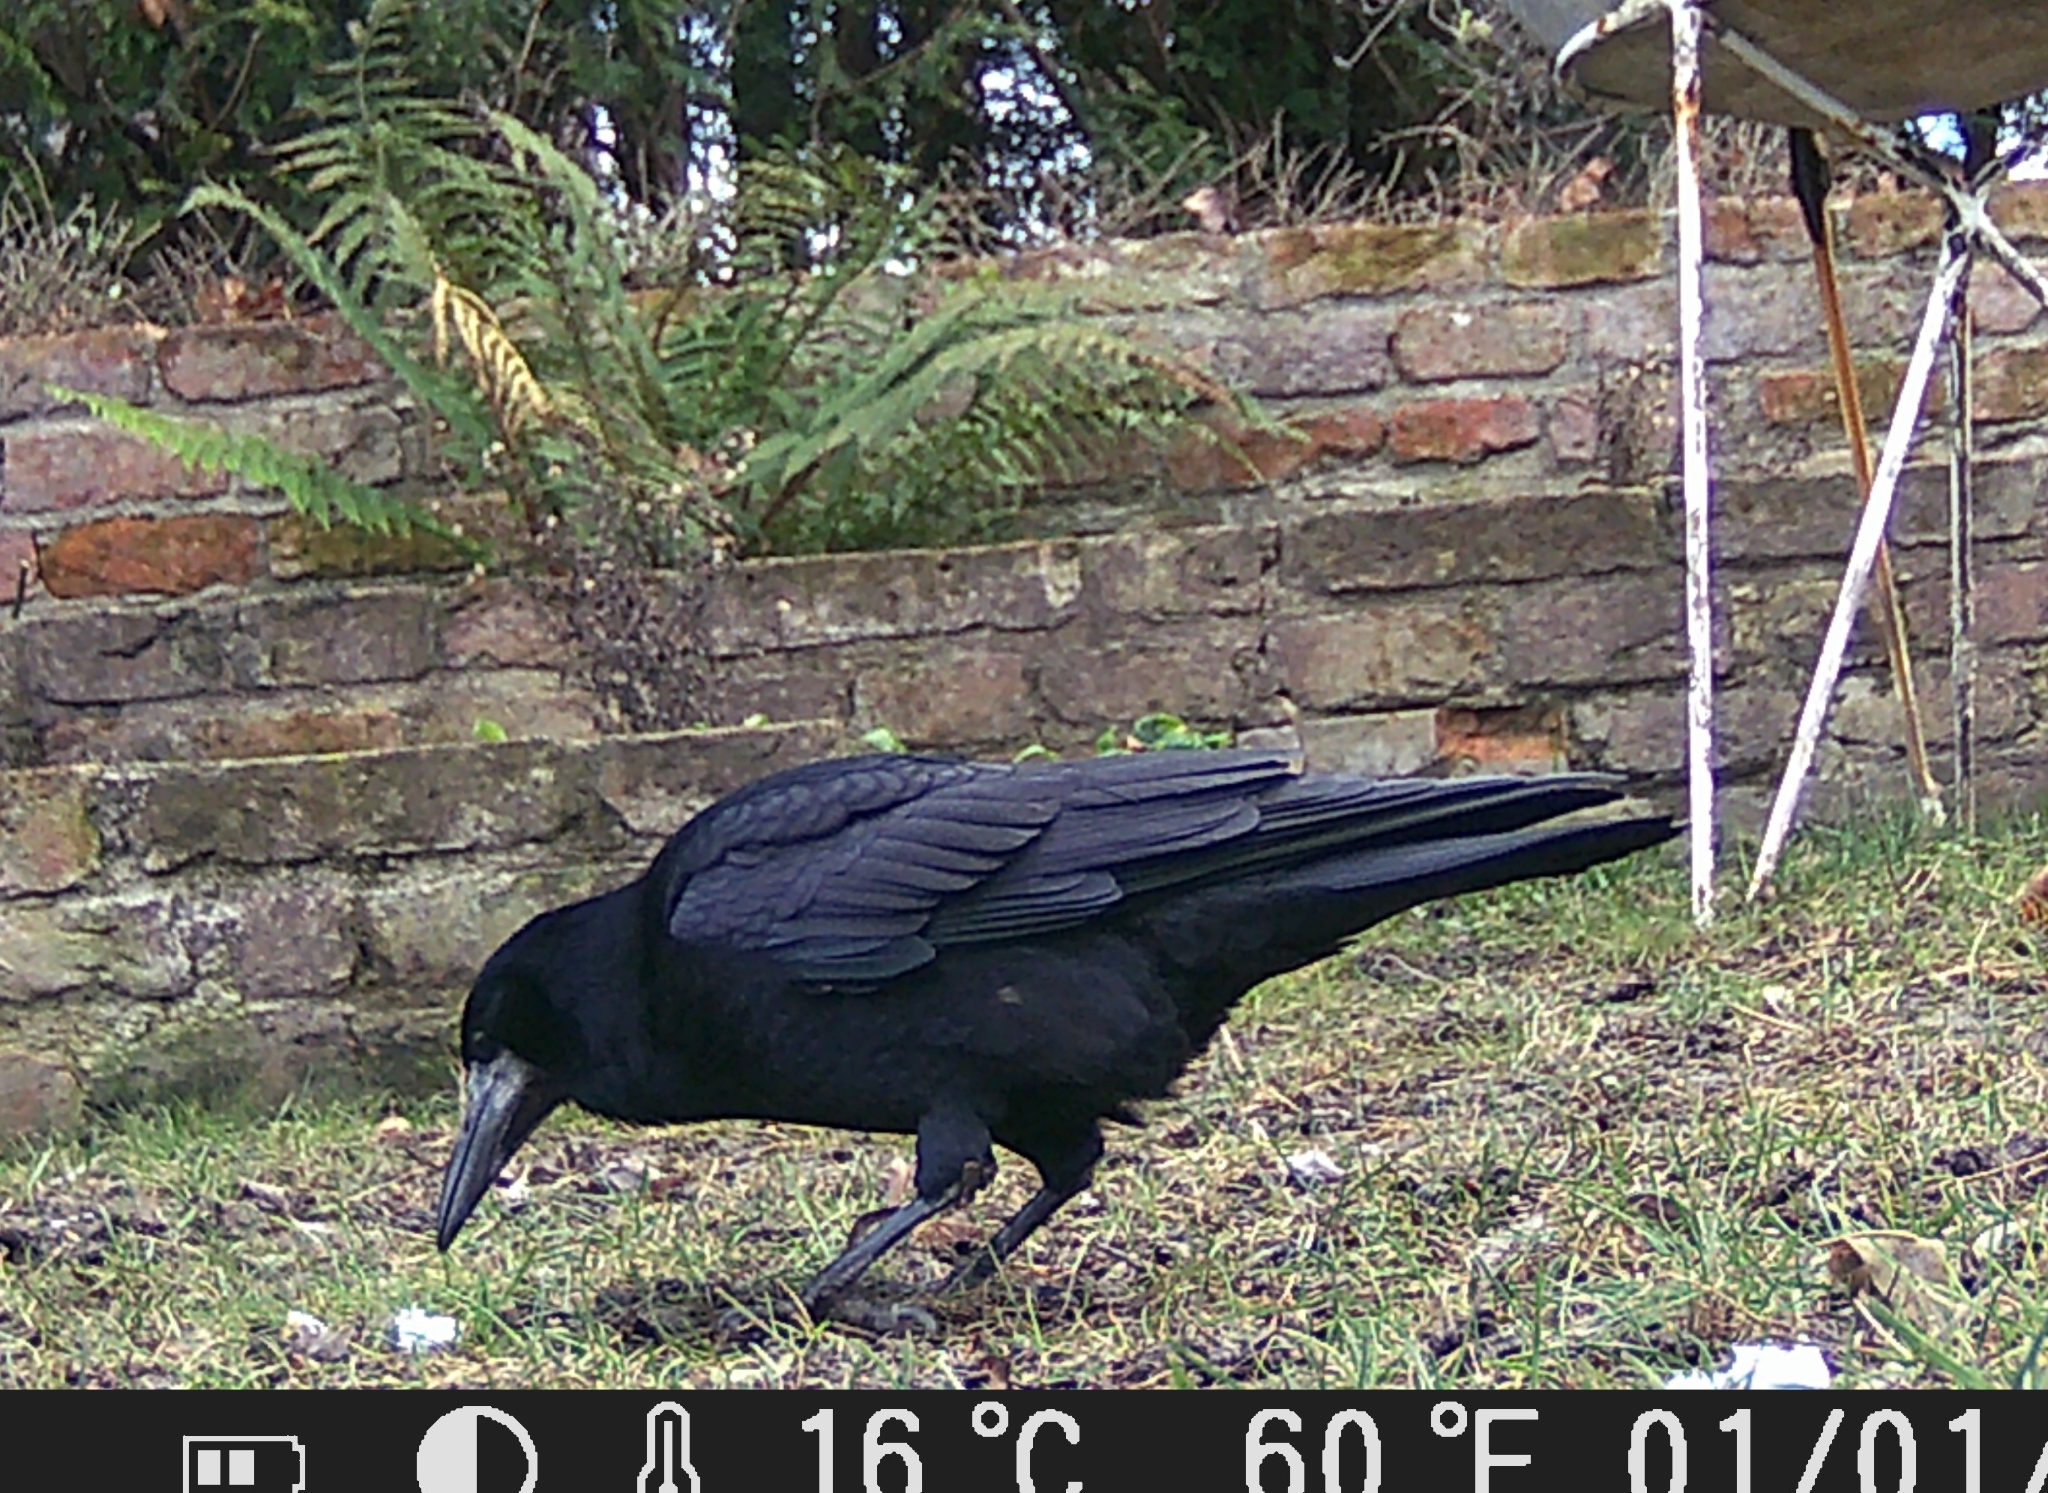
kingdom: Animalia
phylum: Chordata
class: Aves
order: Passeriformes
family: Corvidae
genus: Corvus
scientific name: Corvus frugilegus
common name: Rook
